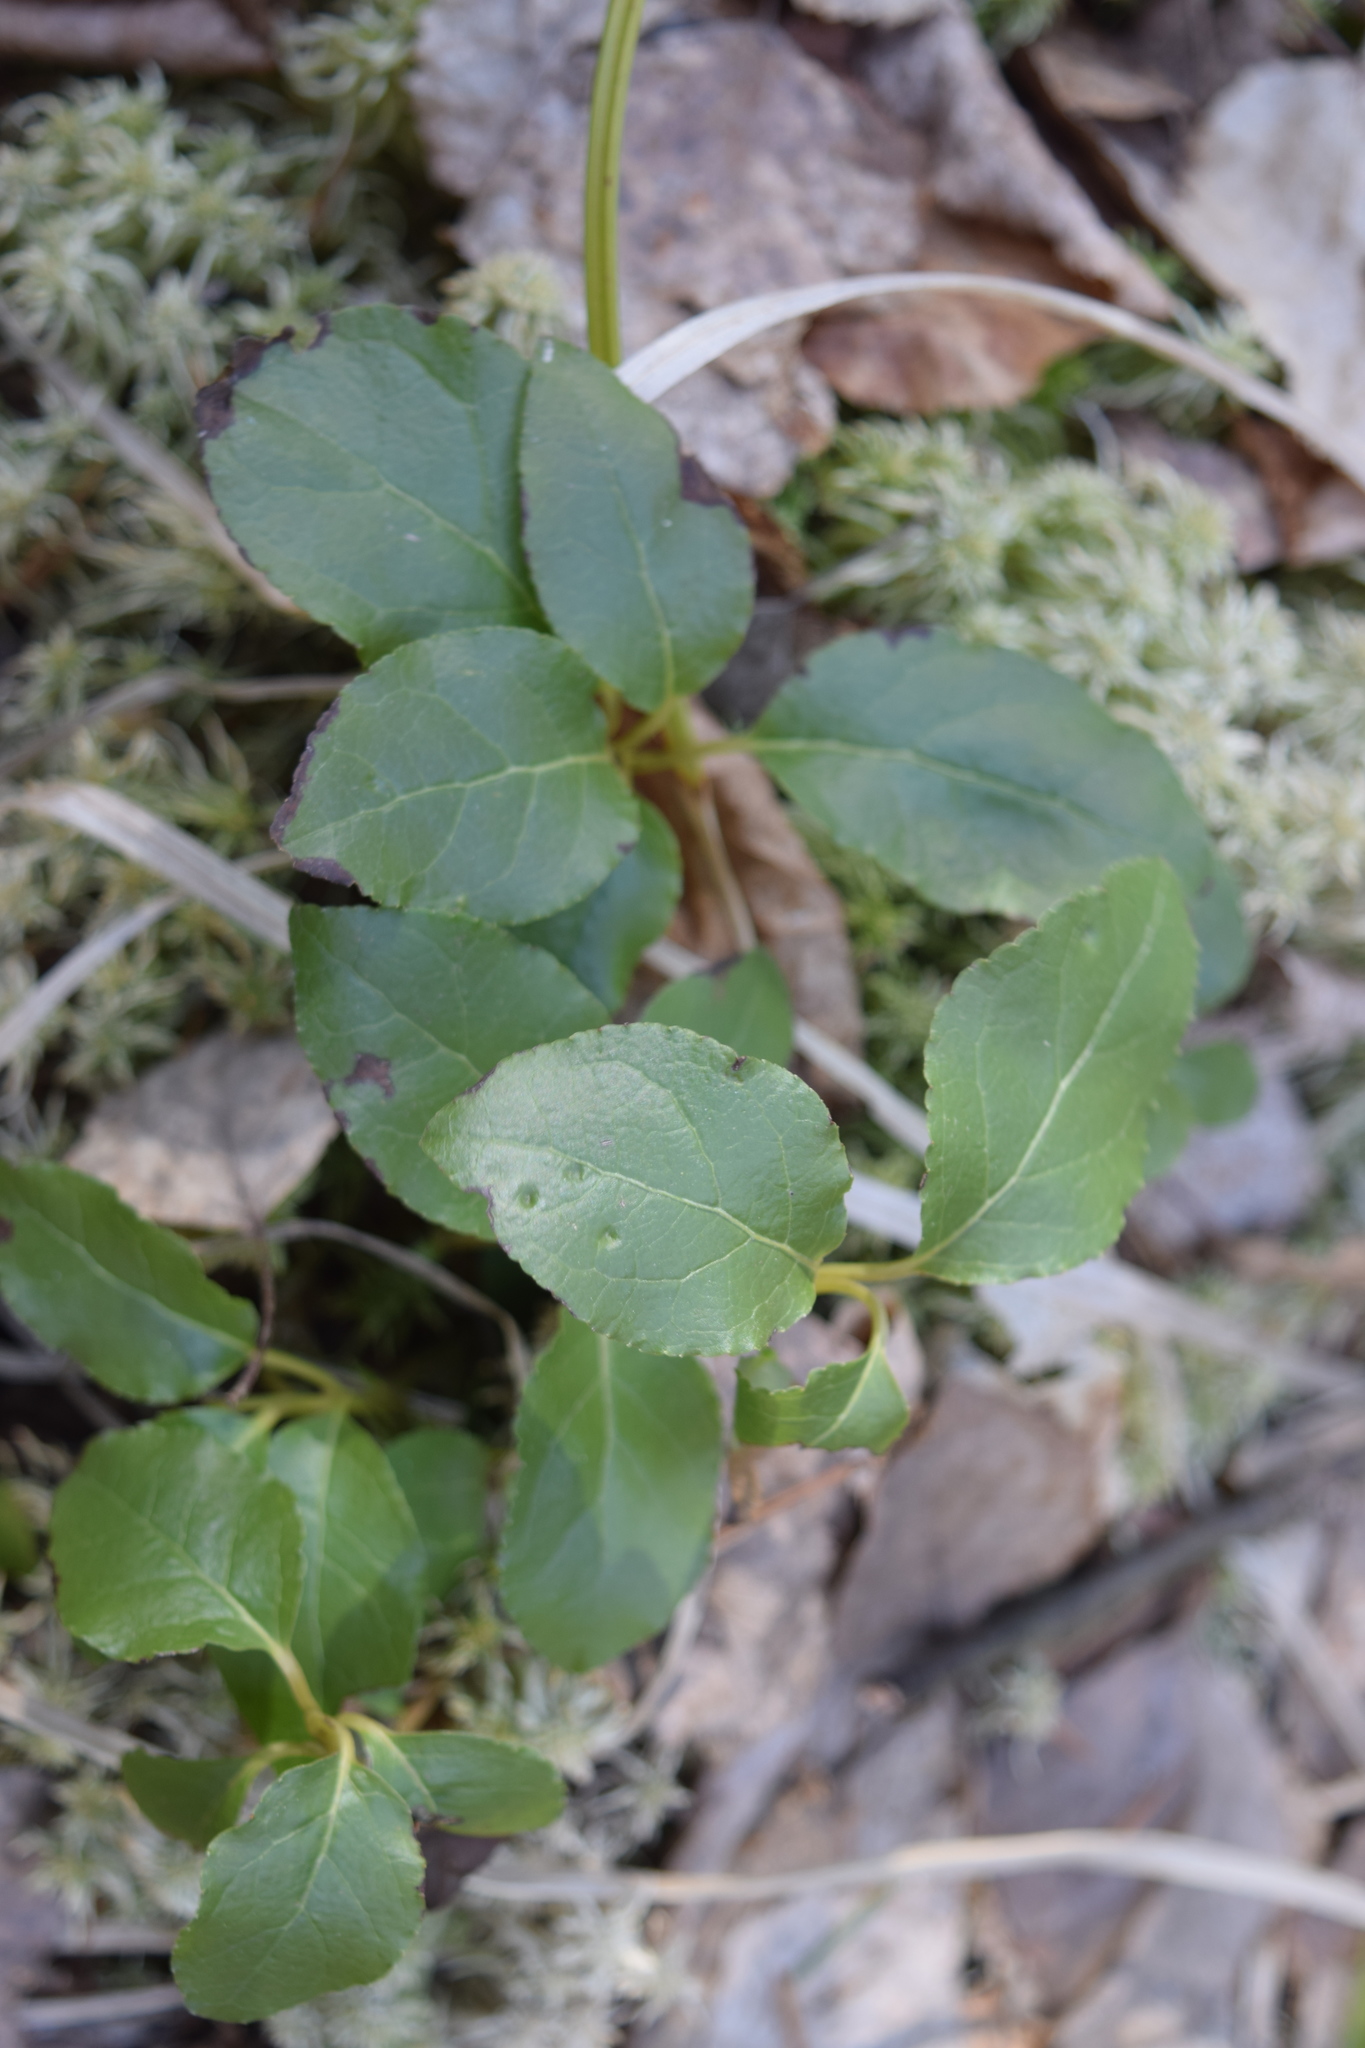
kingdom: Plantae
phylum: Tracheophyta
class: Magnoliopsida
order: Ericales
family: Ericaceae
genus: Orthilia
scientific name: Orthilia secunda
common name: One-sided orthilia
